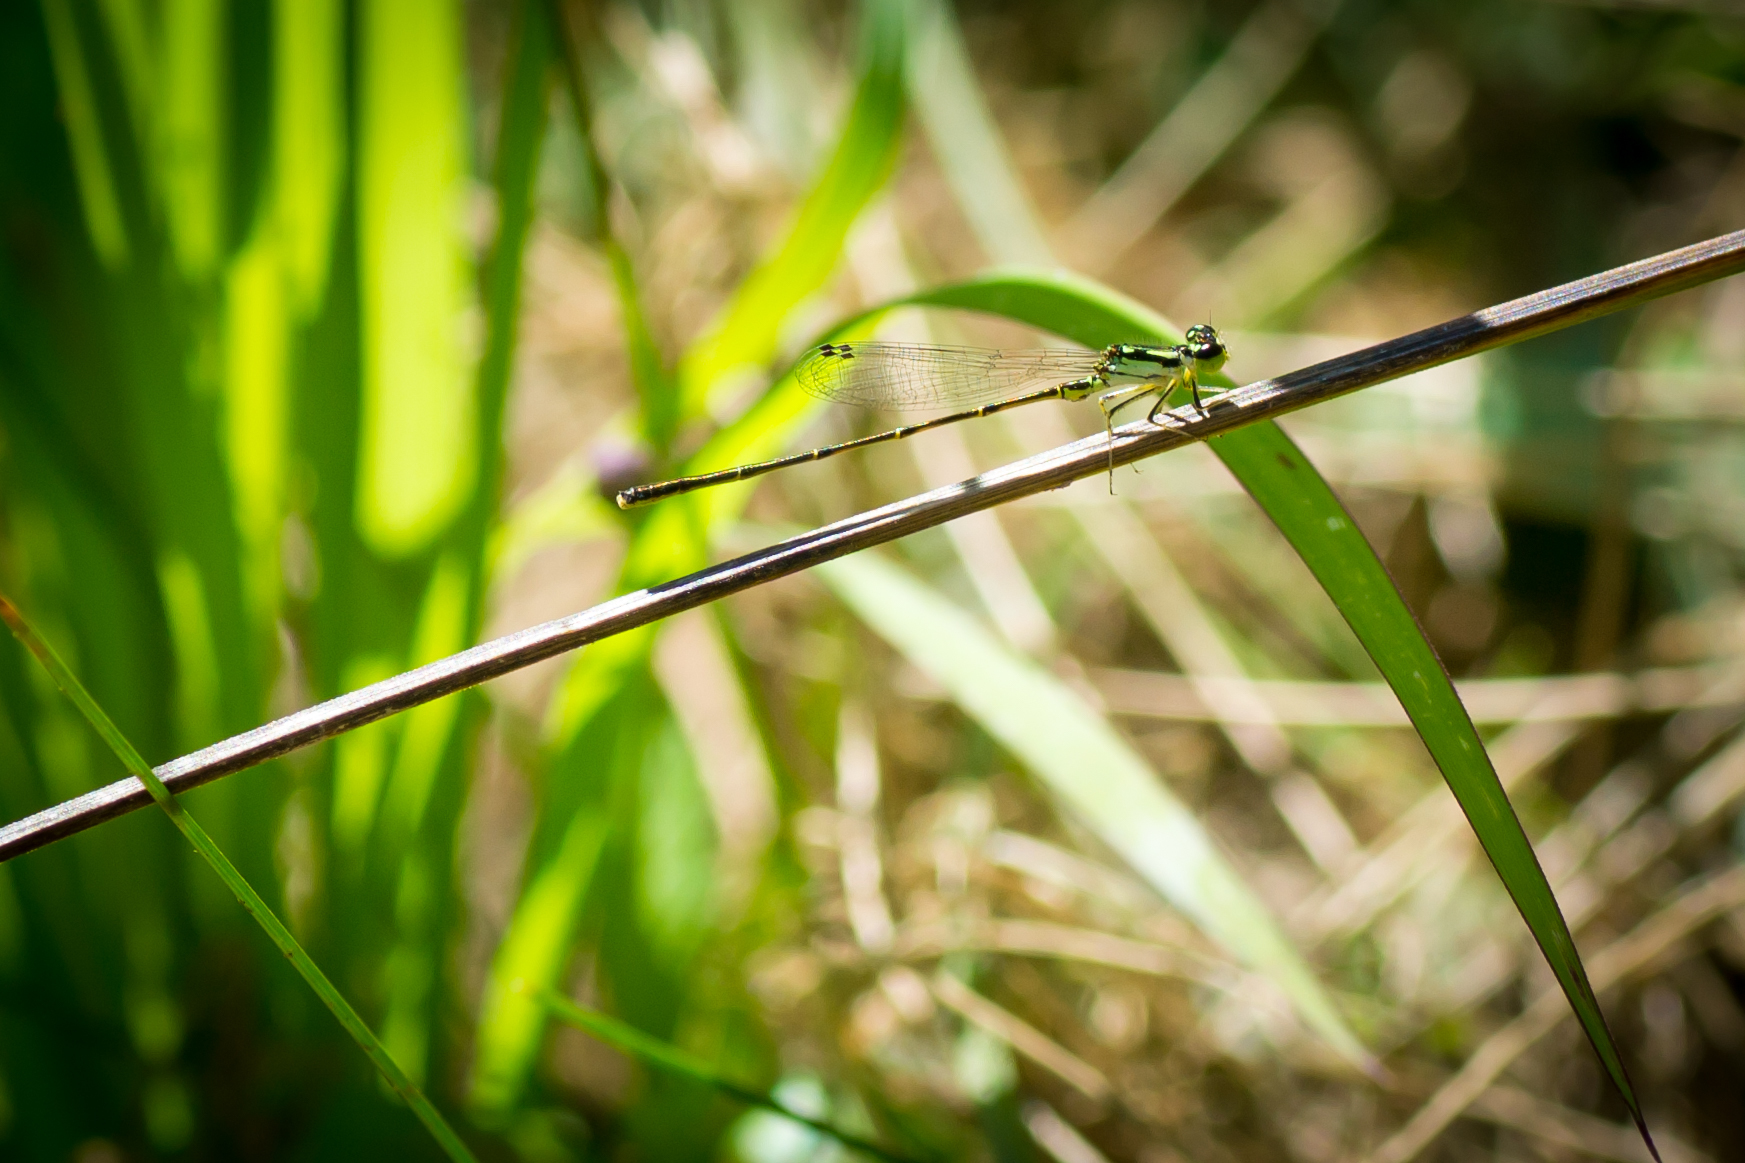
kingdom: Animalia
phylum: Arthropoda
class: Insecta
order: Odonata
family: Coenagrionidae
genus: Ischnura
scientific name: Ischnura posita
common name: Fragile forktail
